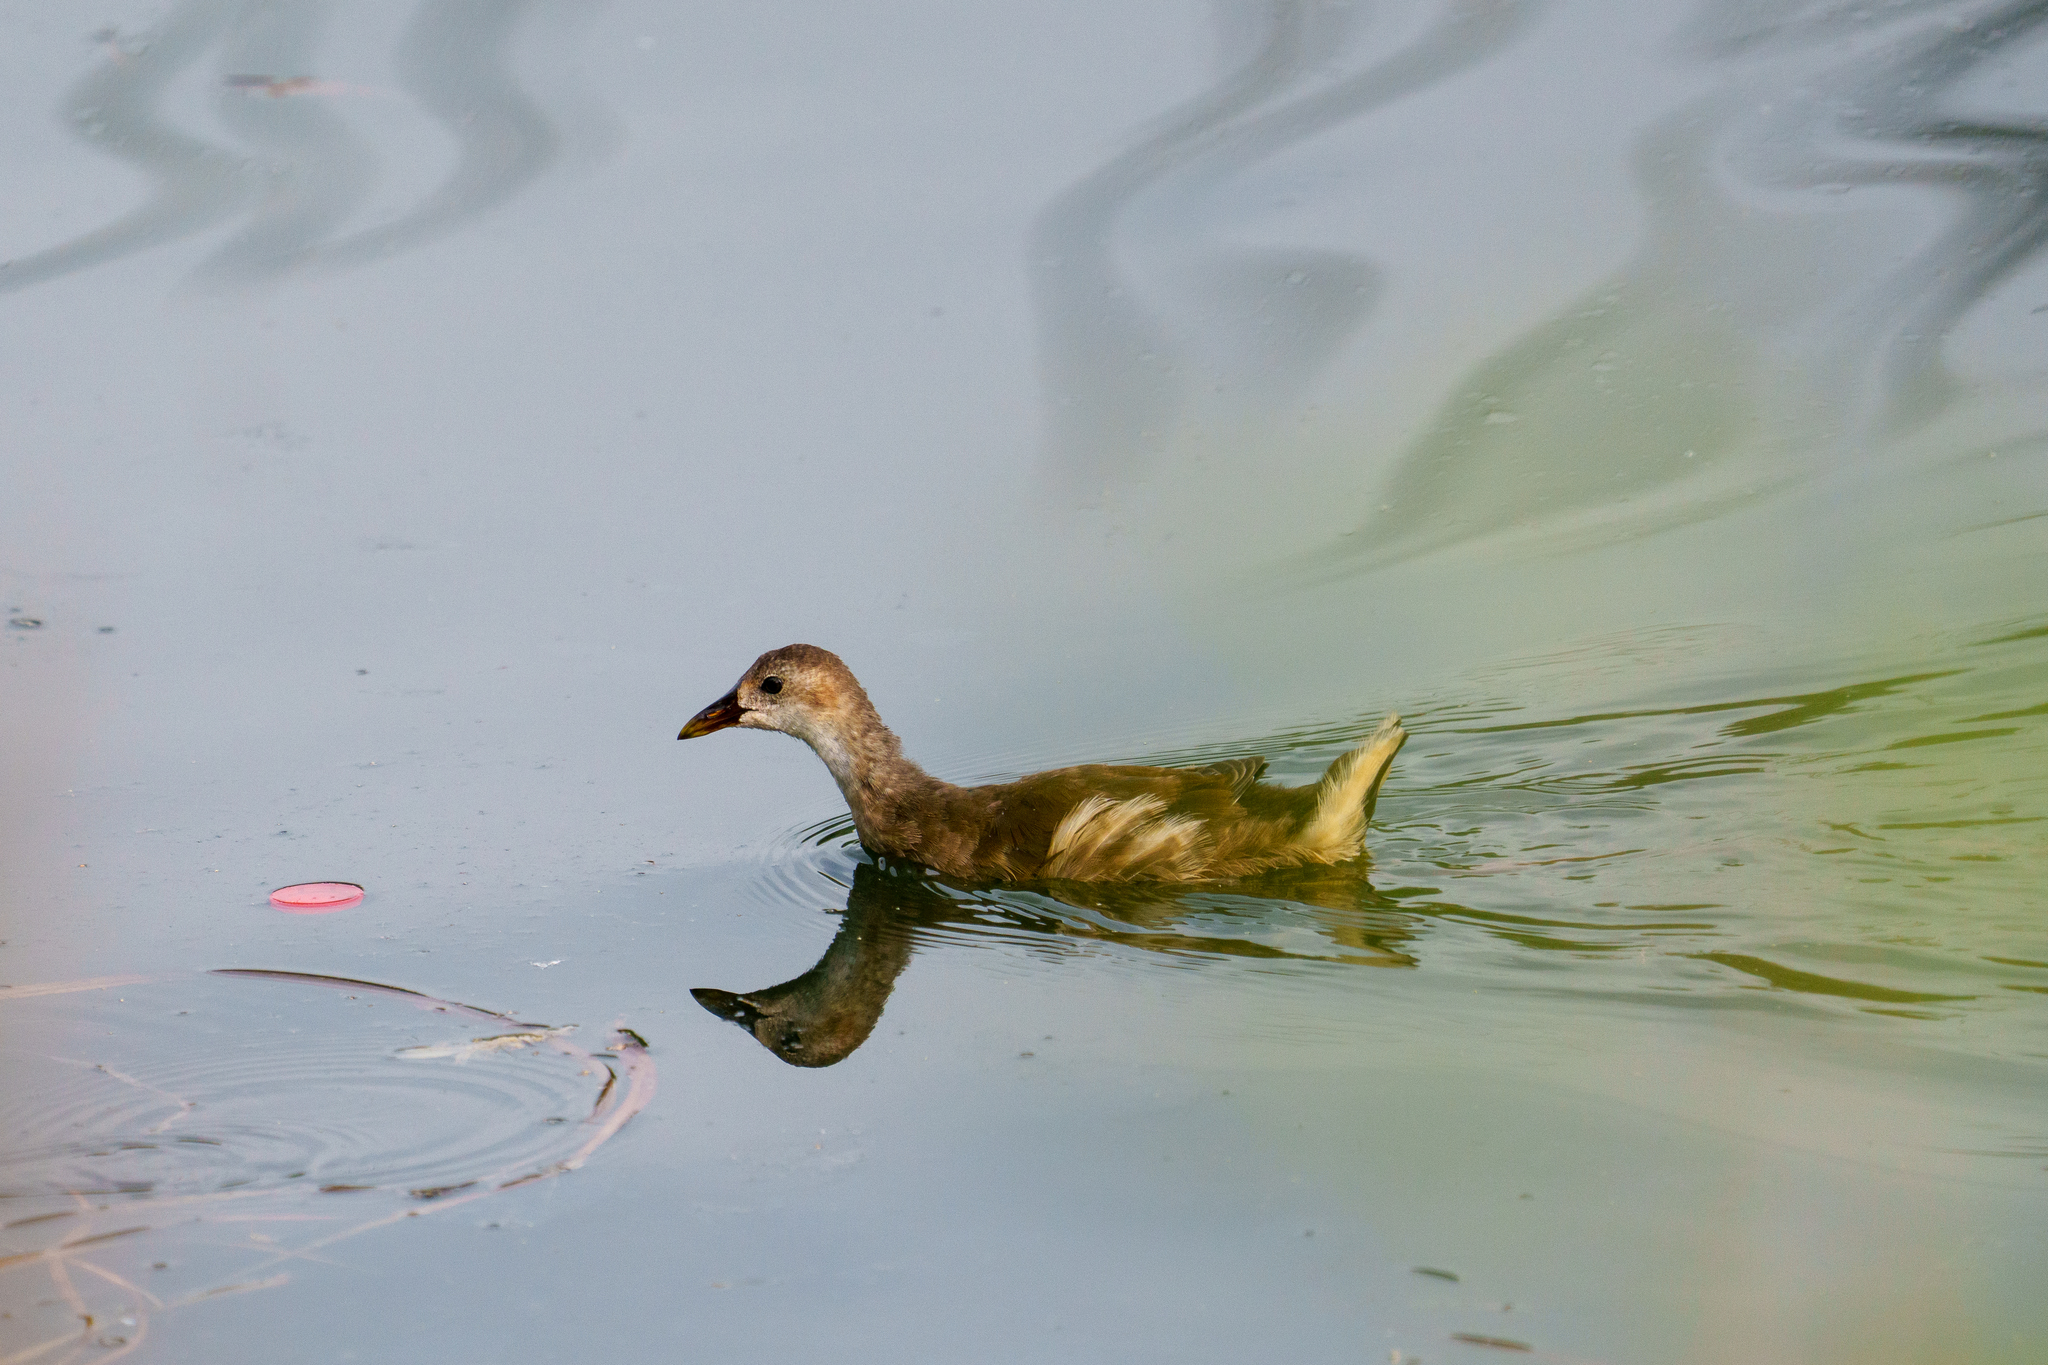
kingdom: Animalia
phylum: Chordata
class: Aves
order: Gruiformes
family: Rallidae
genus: Gallinula
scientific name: Gallinula chloropus
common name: Common moorhen
